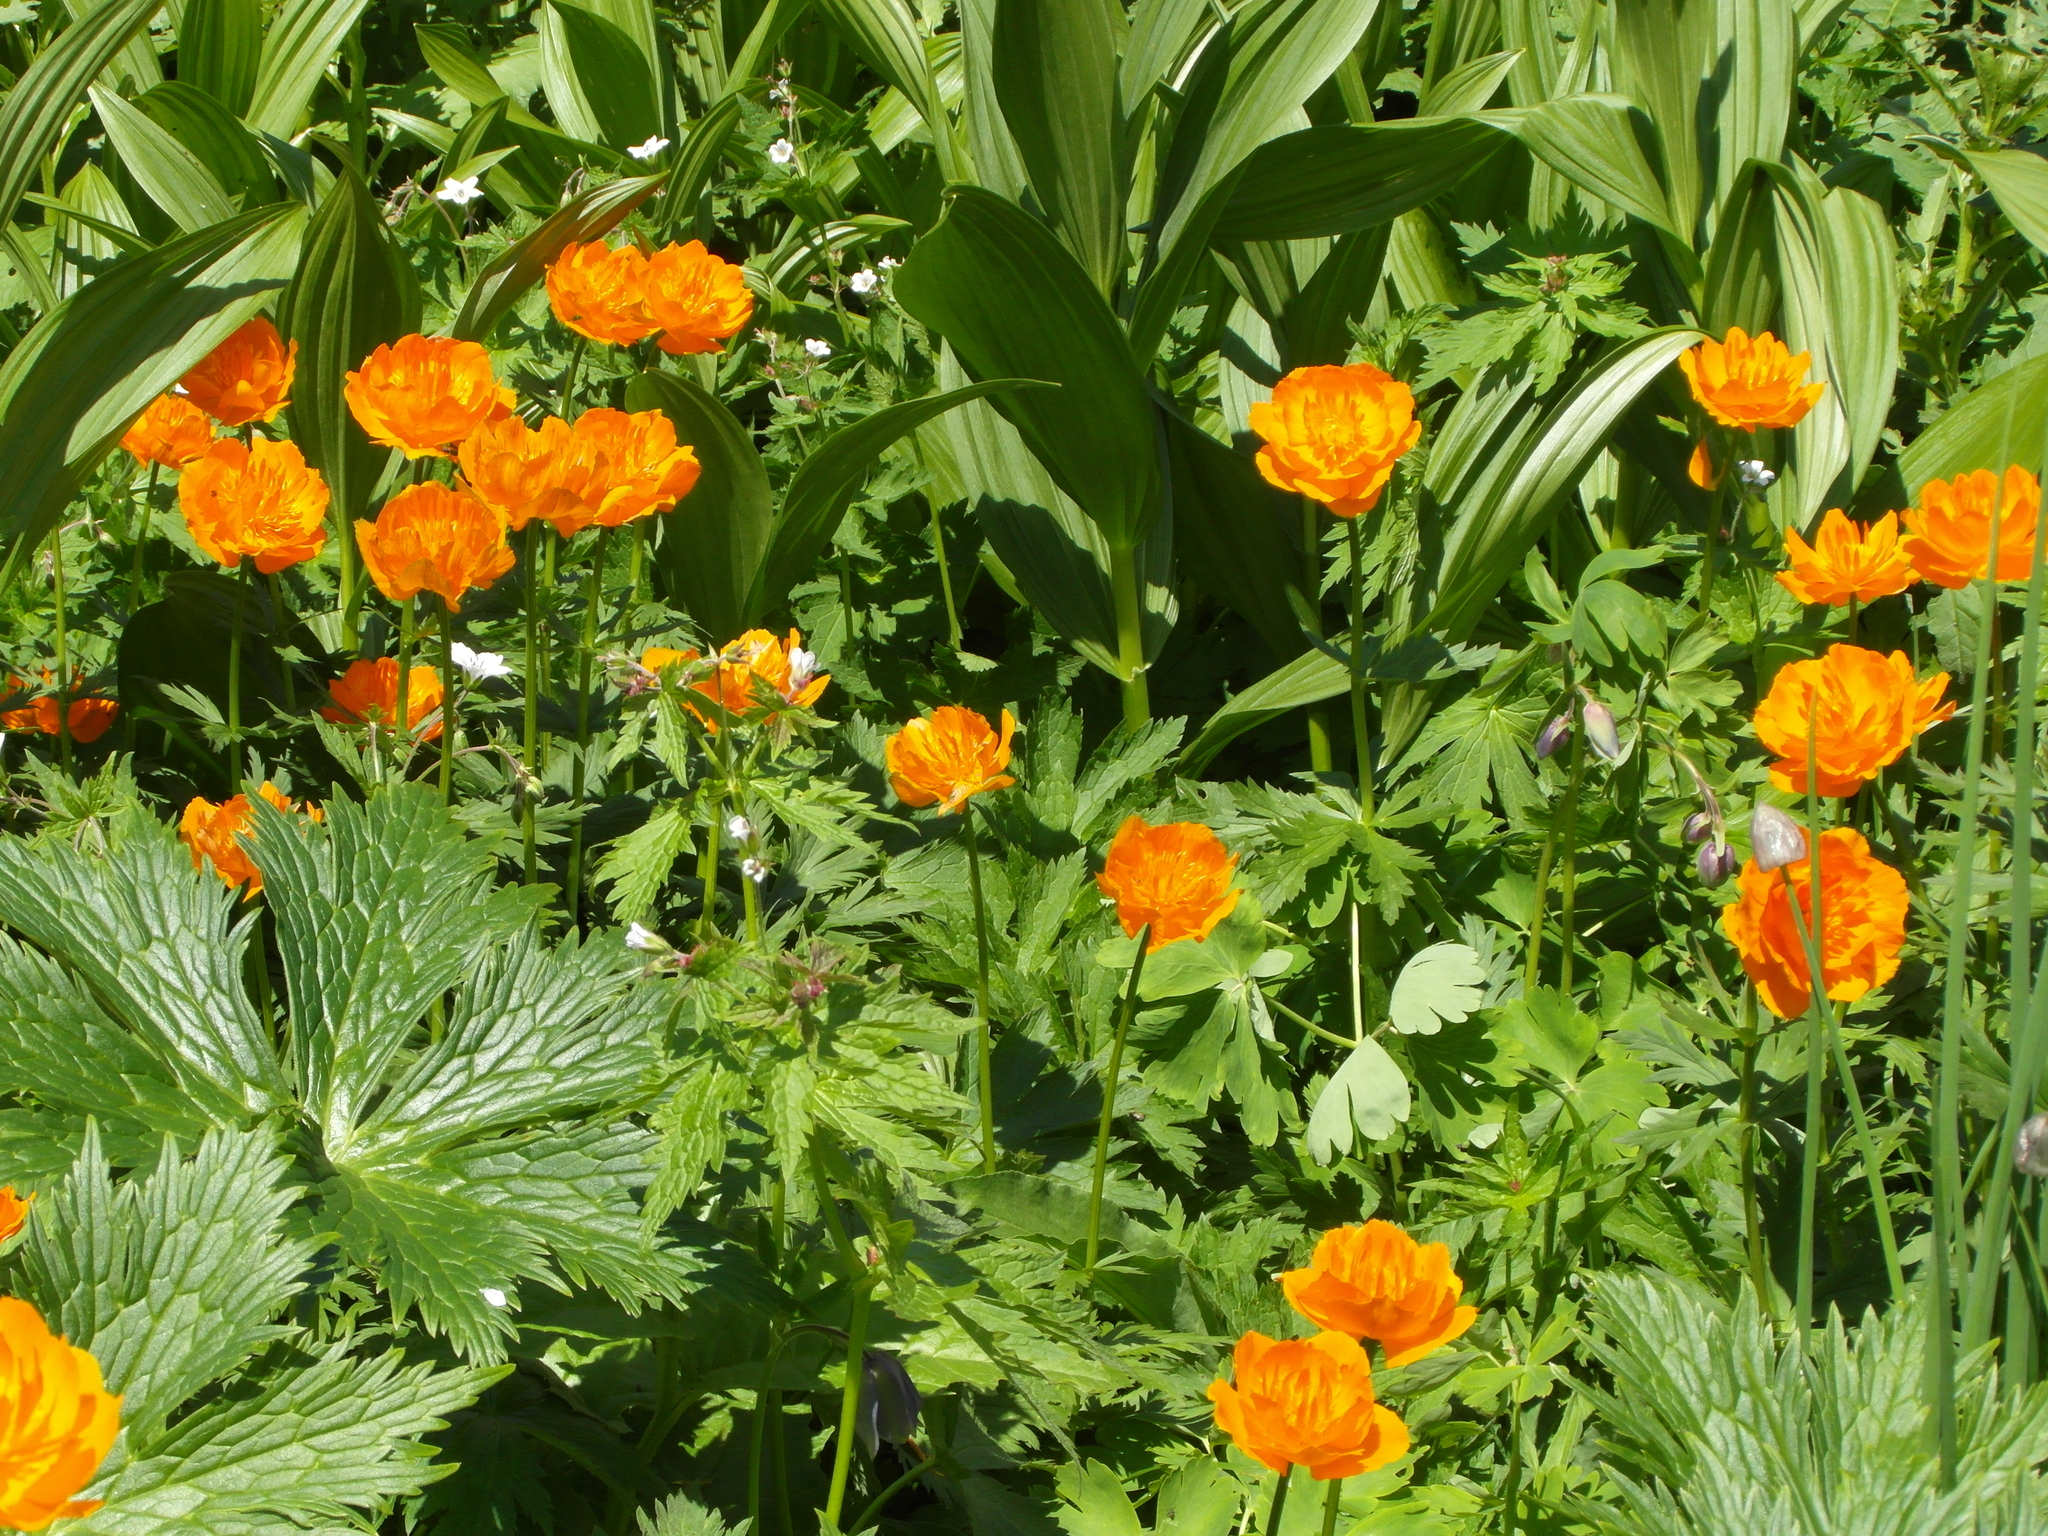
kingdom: Plantae
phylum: Tracheophyta
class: Magnoliopsida
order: Ranunculales
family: Ranunculaceae
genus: Trollius
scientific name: Trollius chinensis
